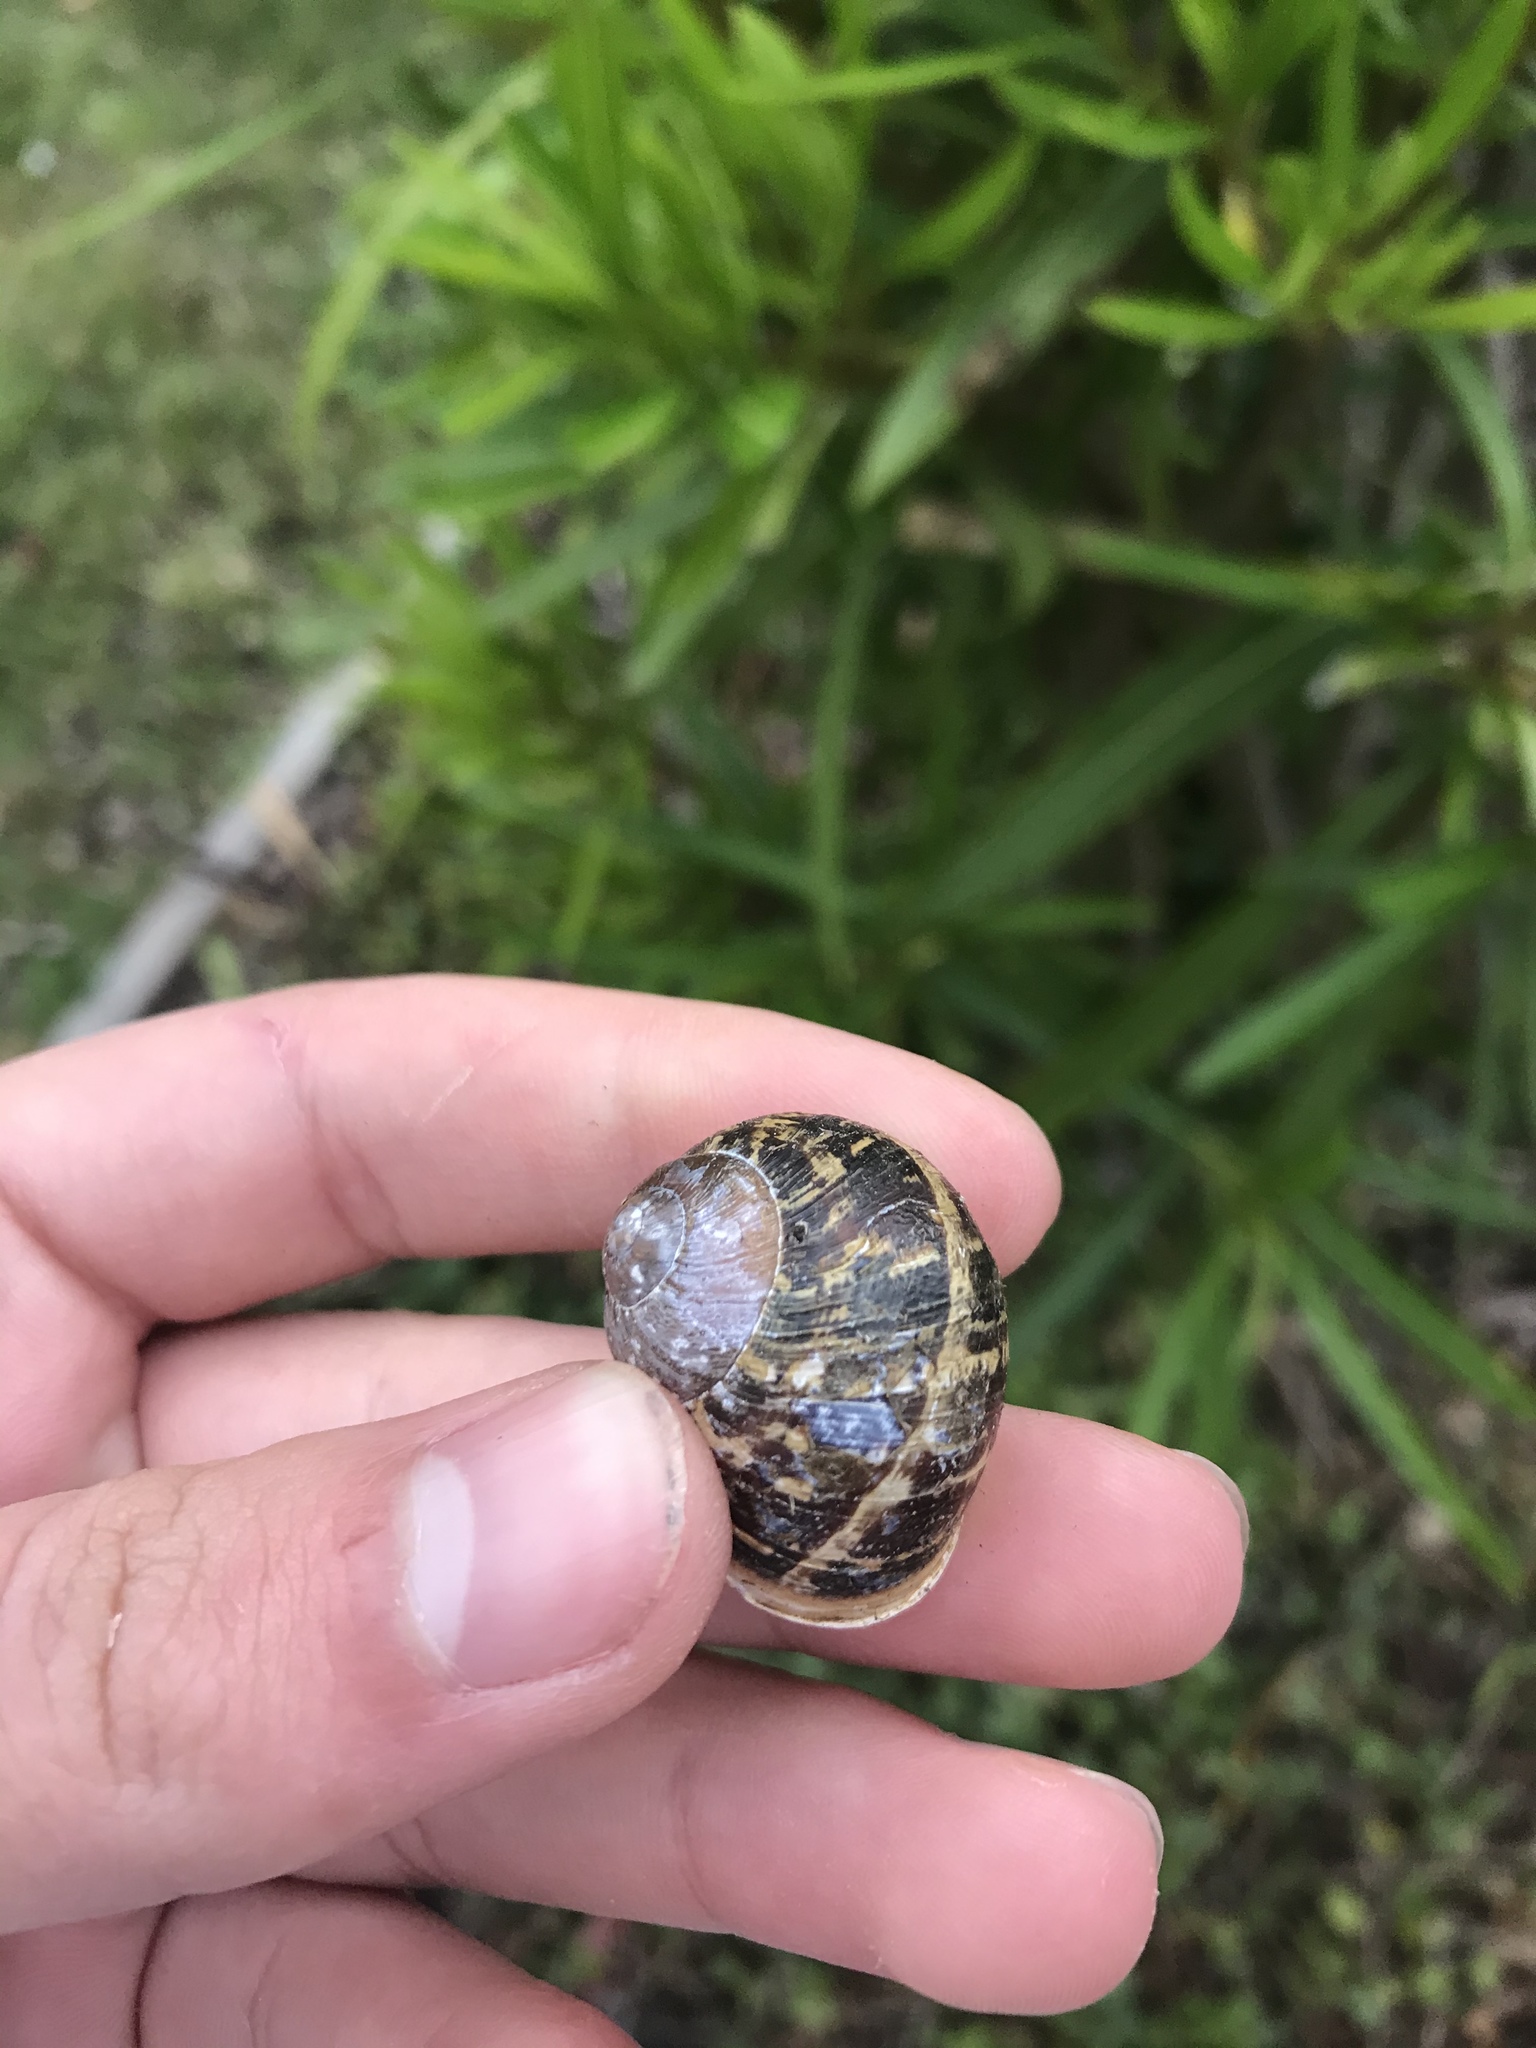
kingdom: Animalia
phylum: Mollusca
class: Gastropoda
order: Stylommatophora
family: Helicidae
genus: Cornu
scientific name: Cornu aspersum
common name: Brown garden snail
